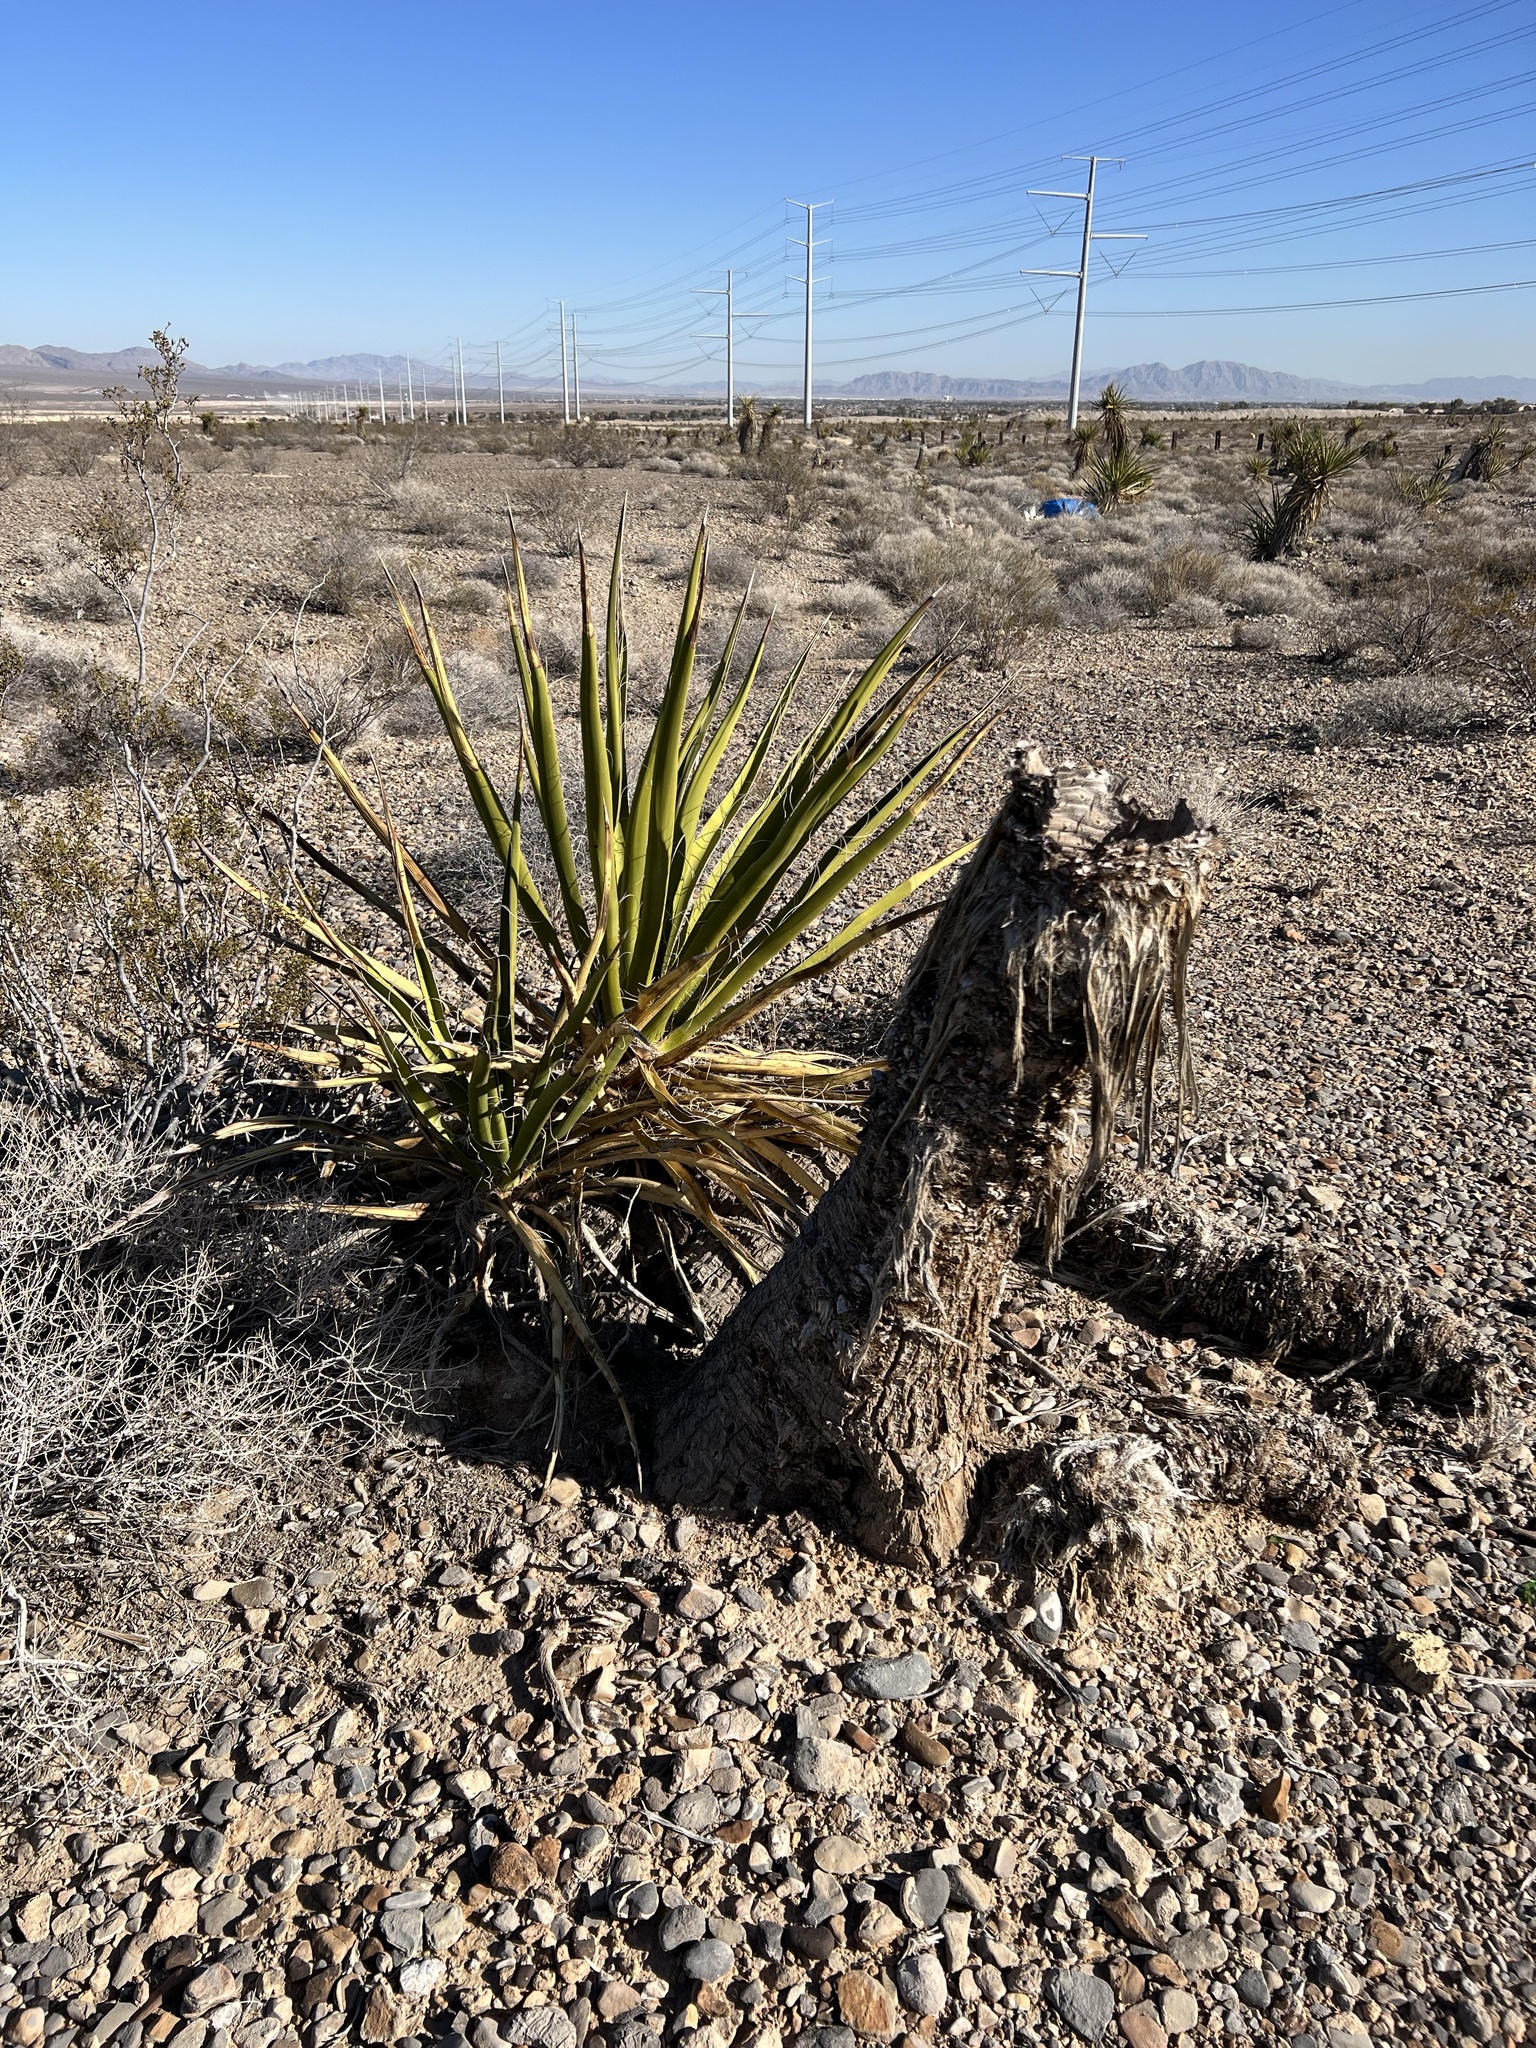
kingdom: Plantae
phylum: Tracheophyta
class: Liliopsida
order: Asparagales
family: Asparagaceae
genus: Yucca
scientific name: Yucca schidigera
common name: Mojave yucca
